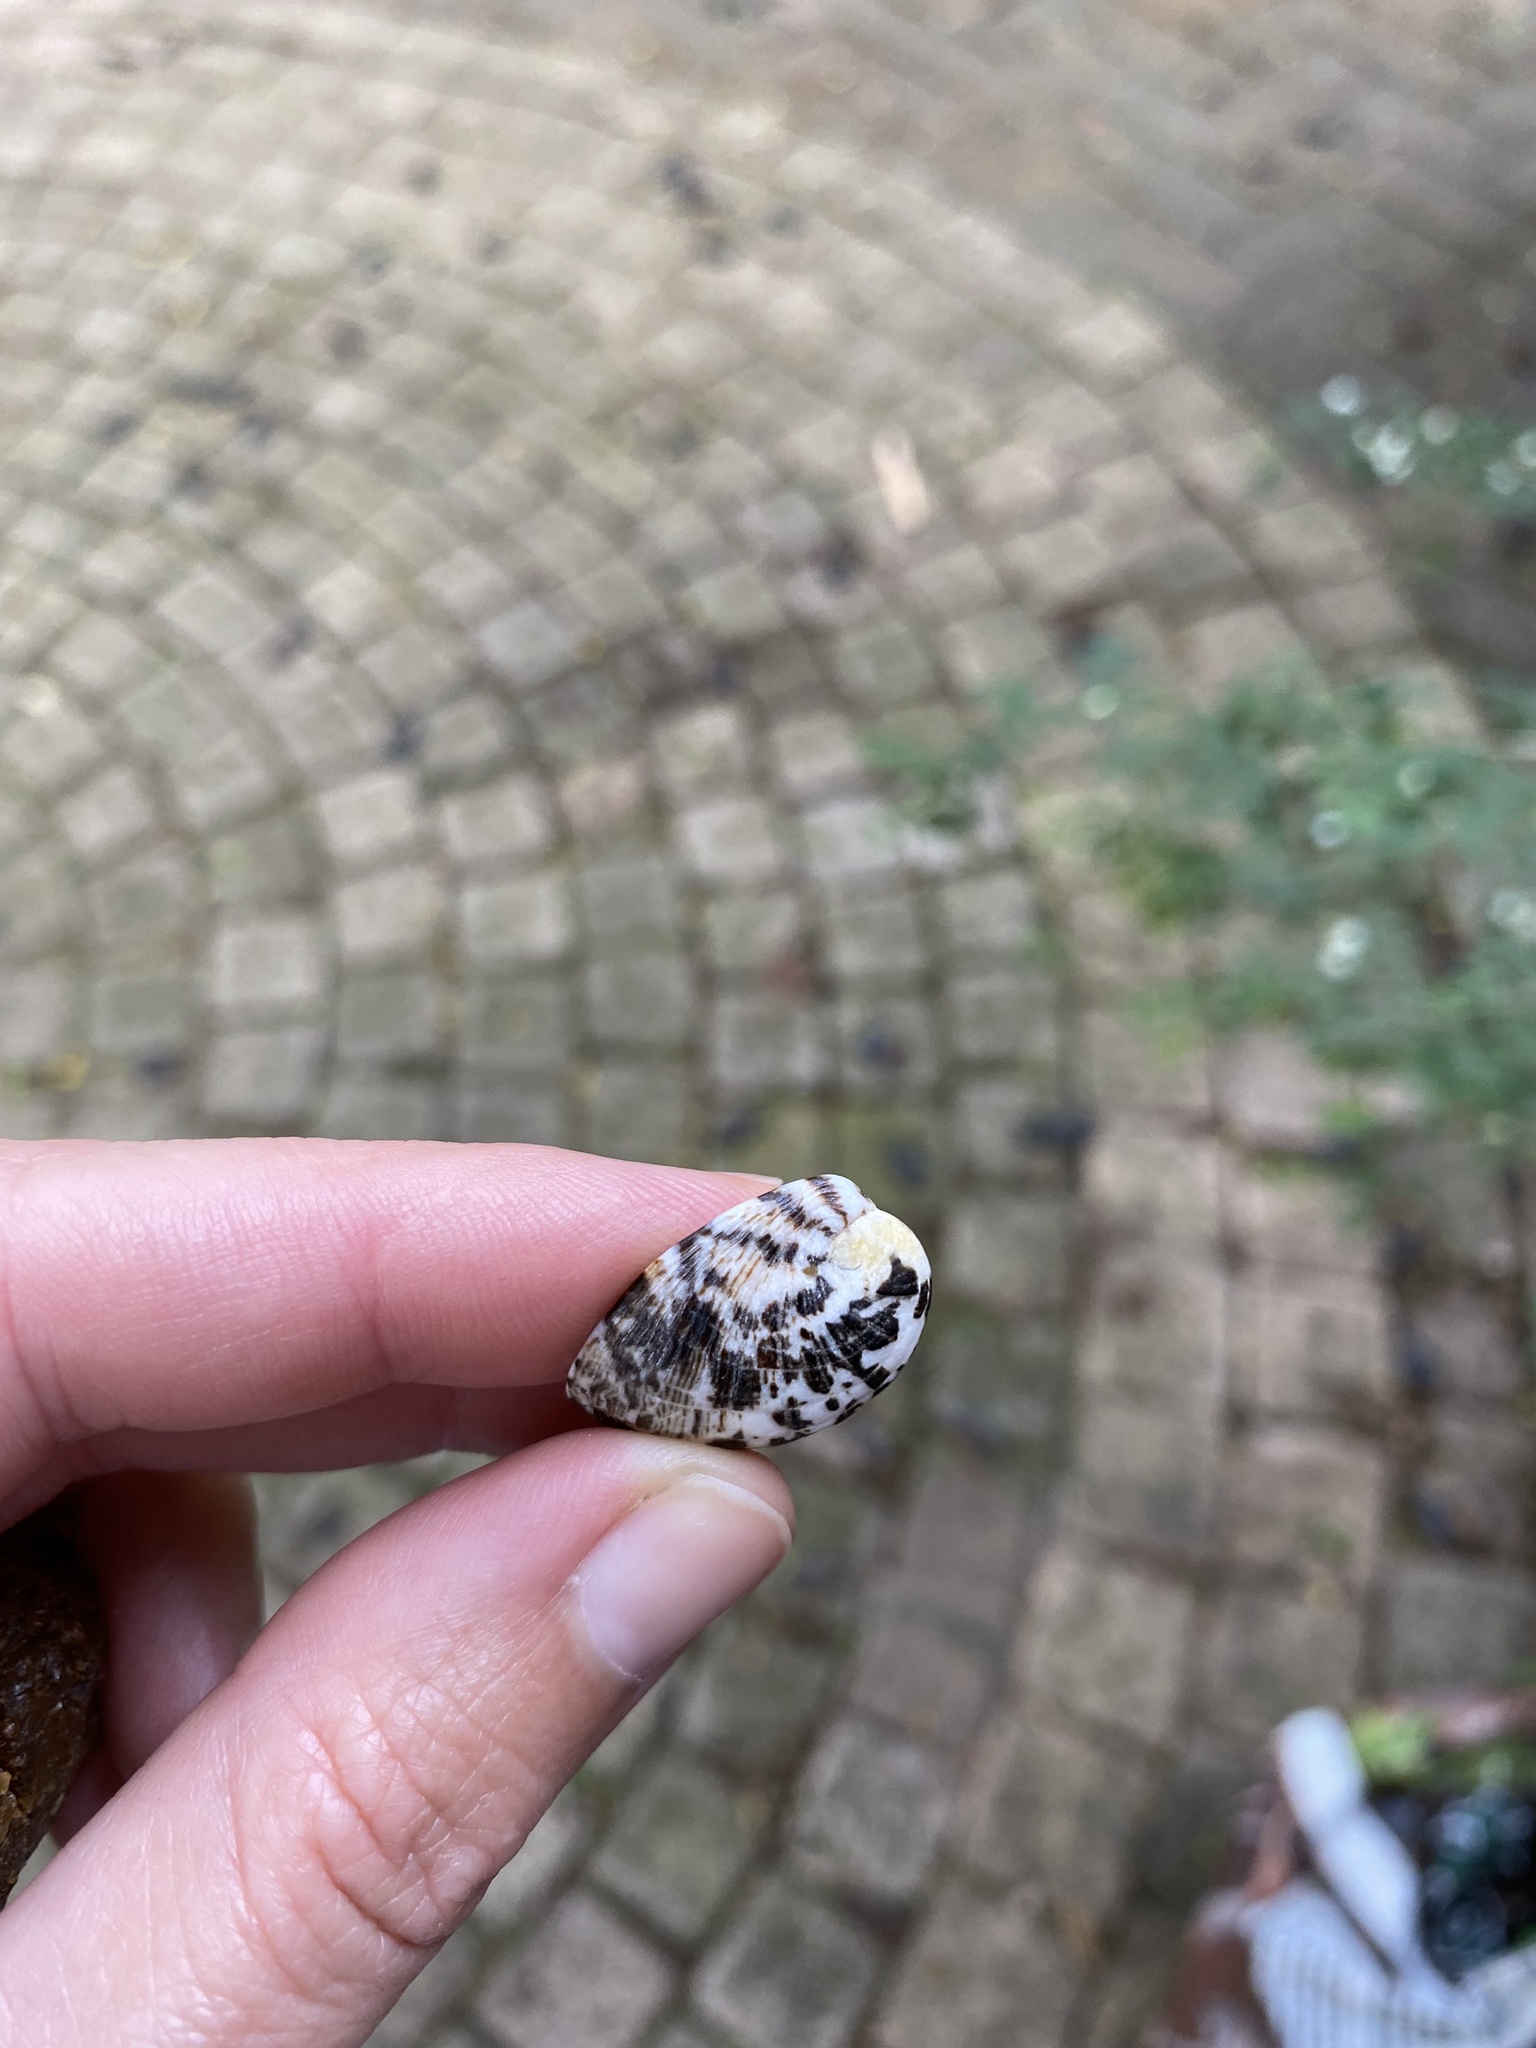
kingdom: Animalia
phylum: Mollusca
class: Gastropoda
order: Cycloneritida
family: Neritidae
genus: Nerita
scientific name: Nerita albicilla
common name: Blotched nerite
